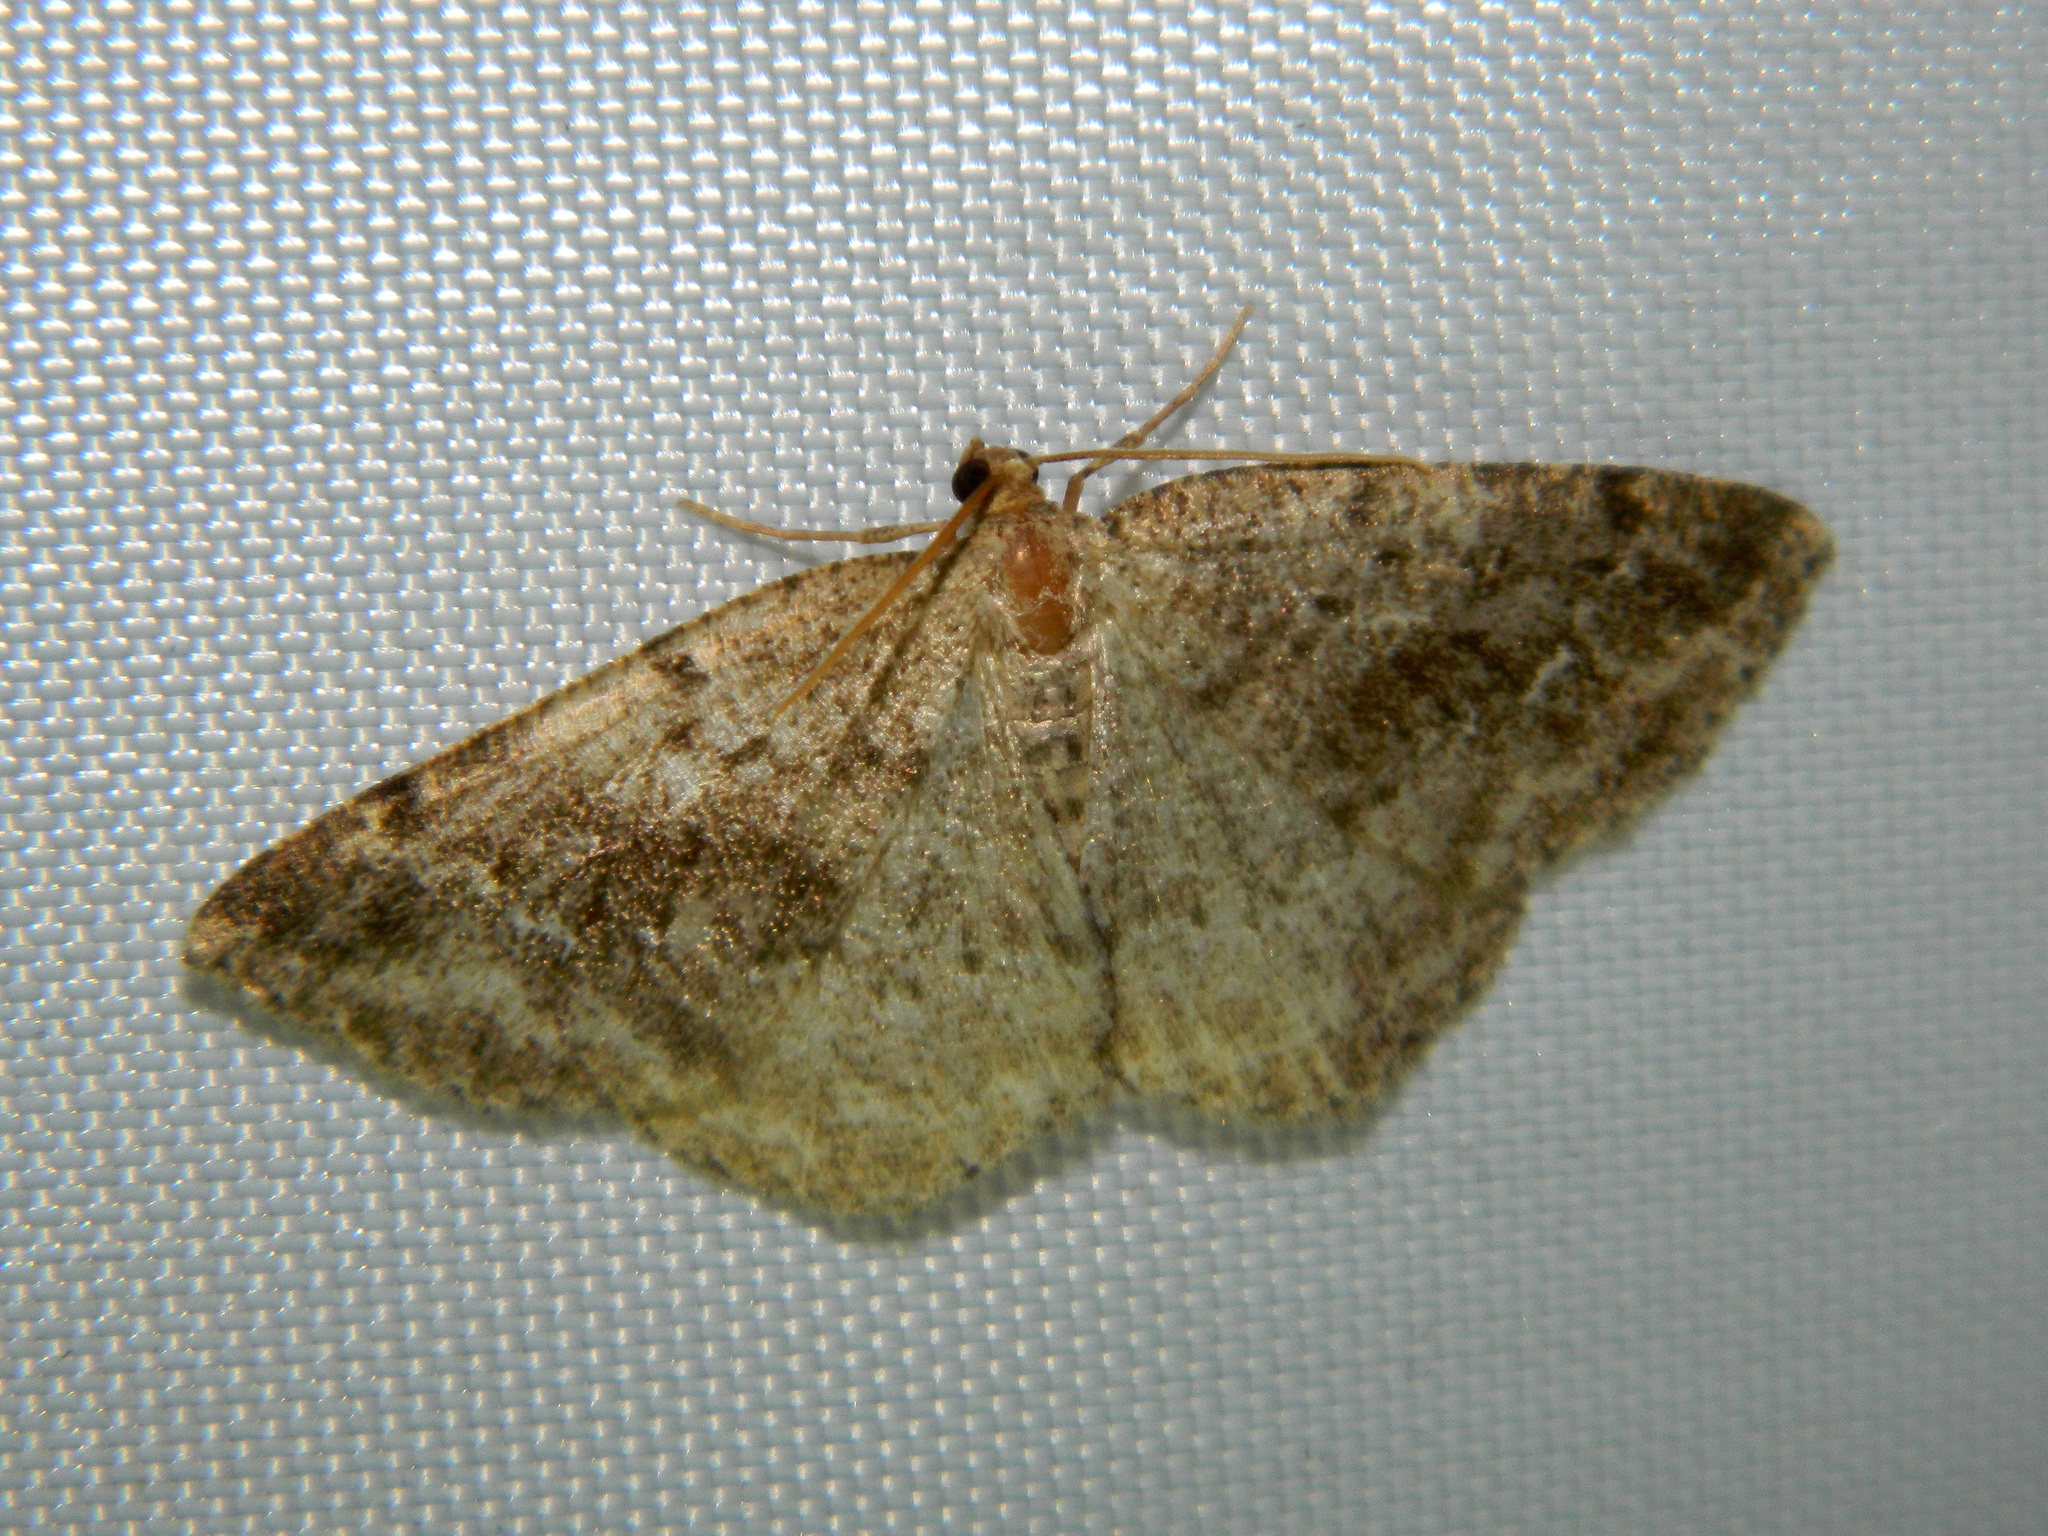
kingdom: Animalia
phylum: Arthropoda
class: Insecta
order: Lepidoptera
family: Geometridae
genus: Homochlodes
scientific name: Homochlodes fritillaria
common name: Pale homochlodes
